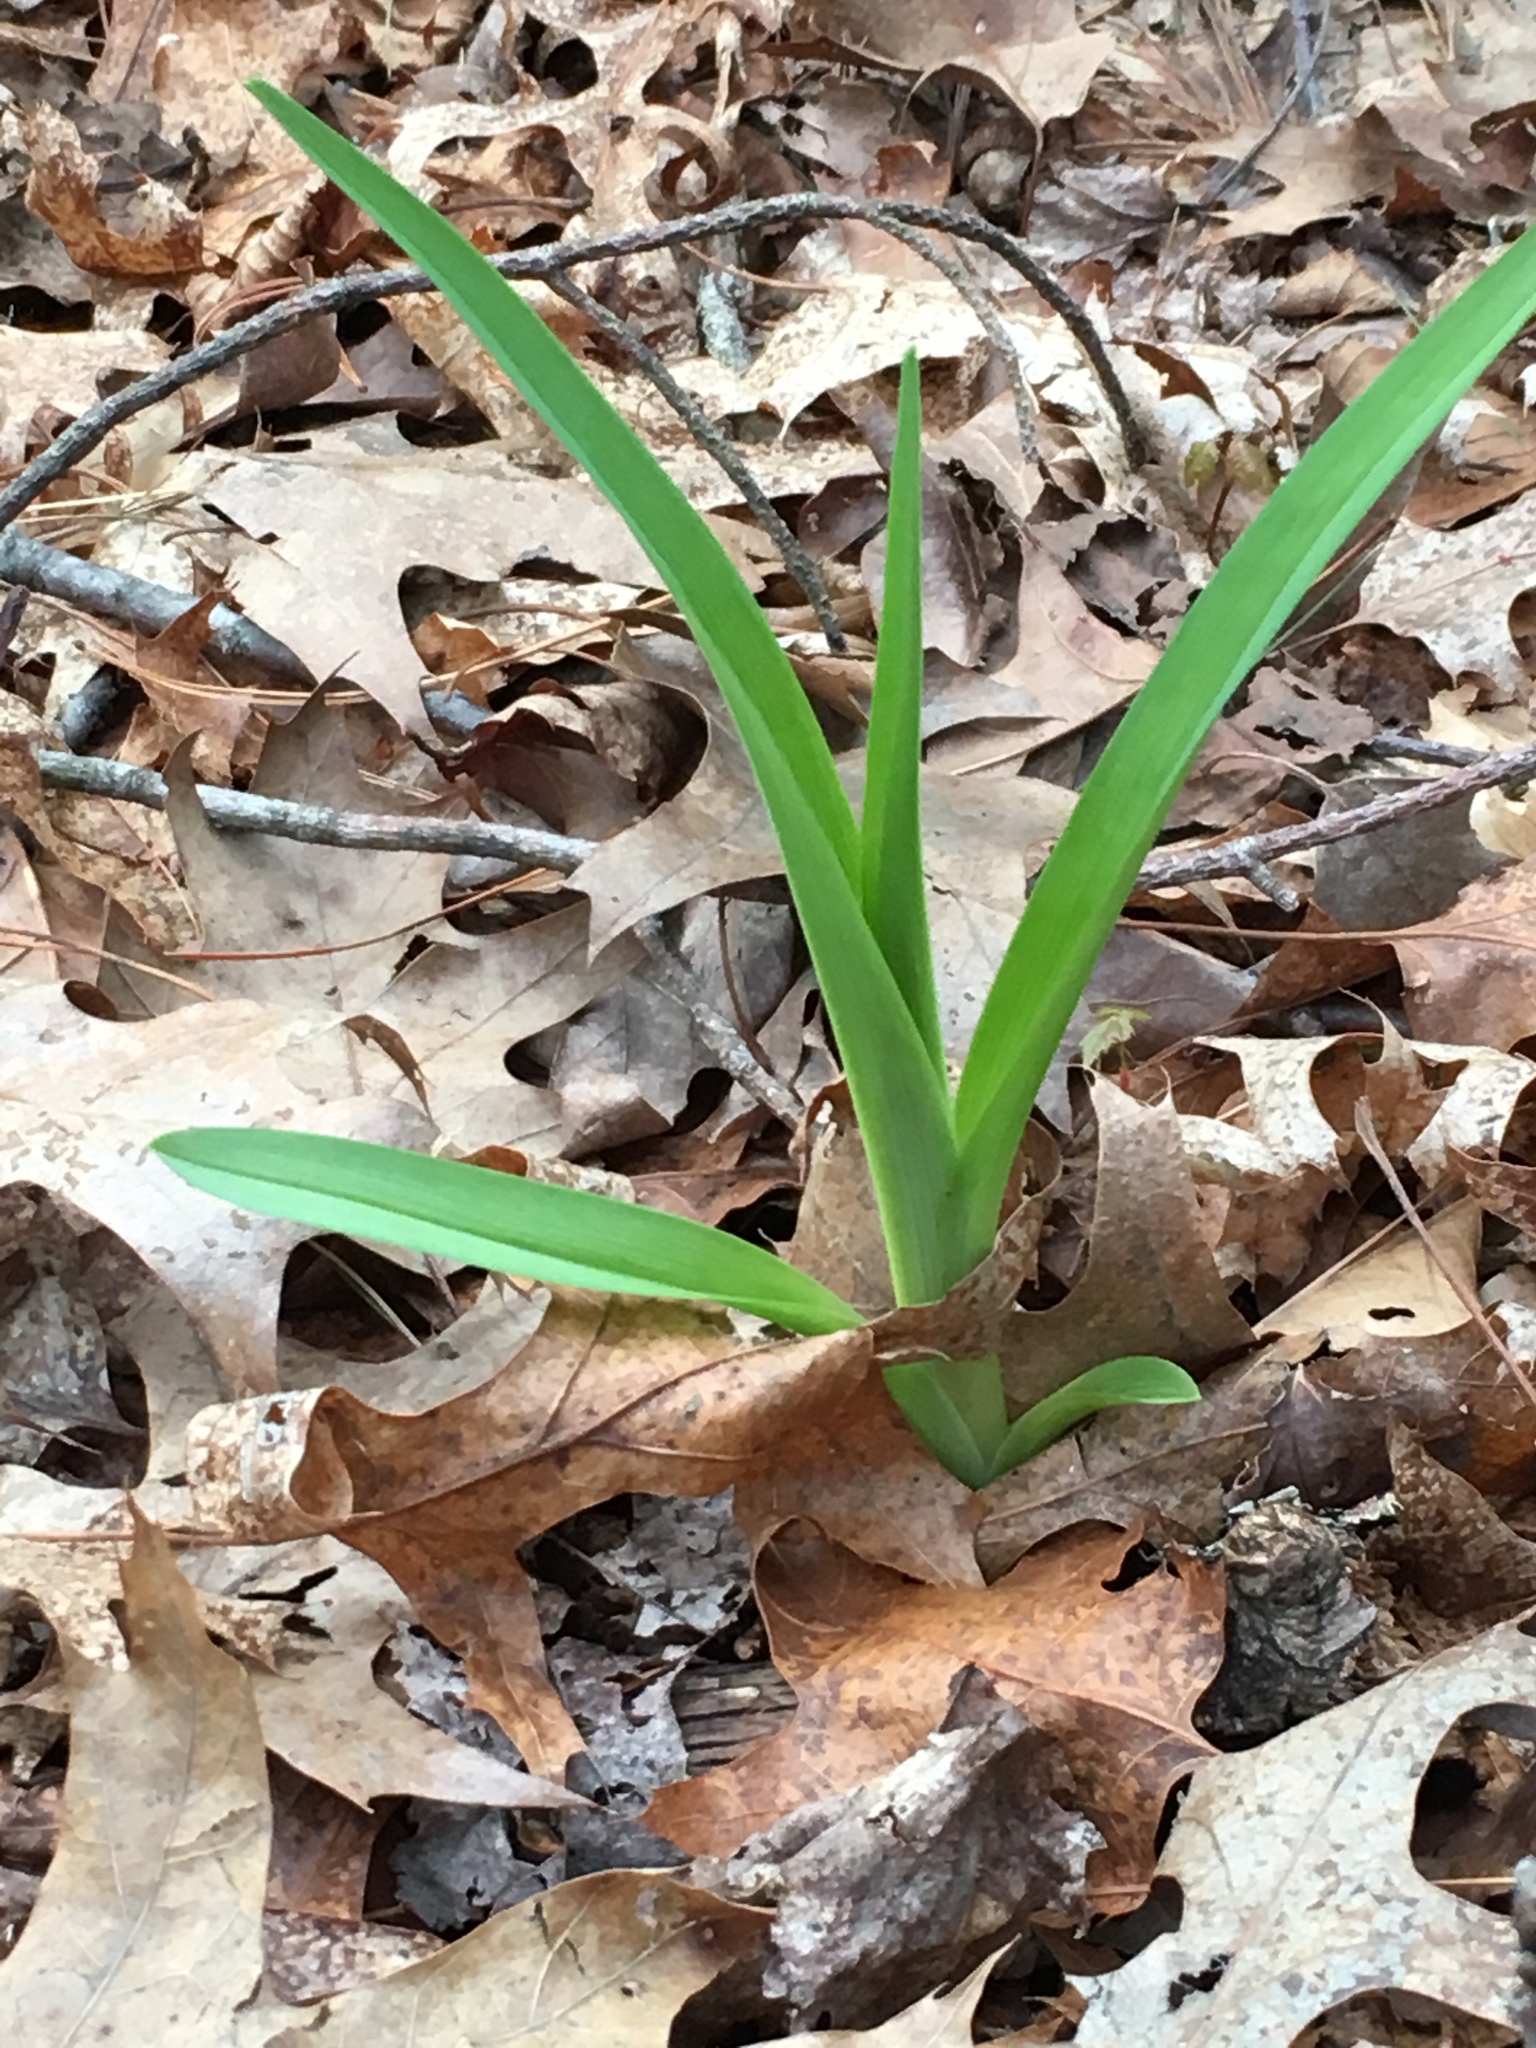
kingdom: Plantae
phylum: Tracheophyta
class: Liliopsida
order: Asparagales
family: Asphodelaceae
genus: Hemerocallis
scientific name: Hemerocallis fulva
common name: Orange day-lily
